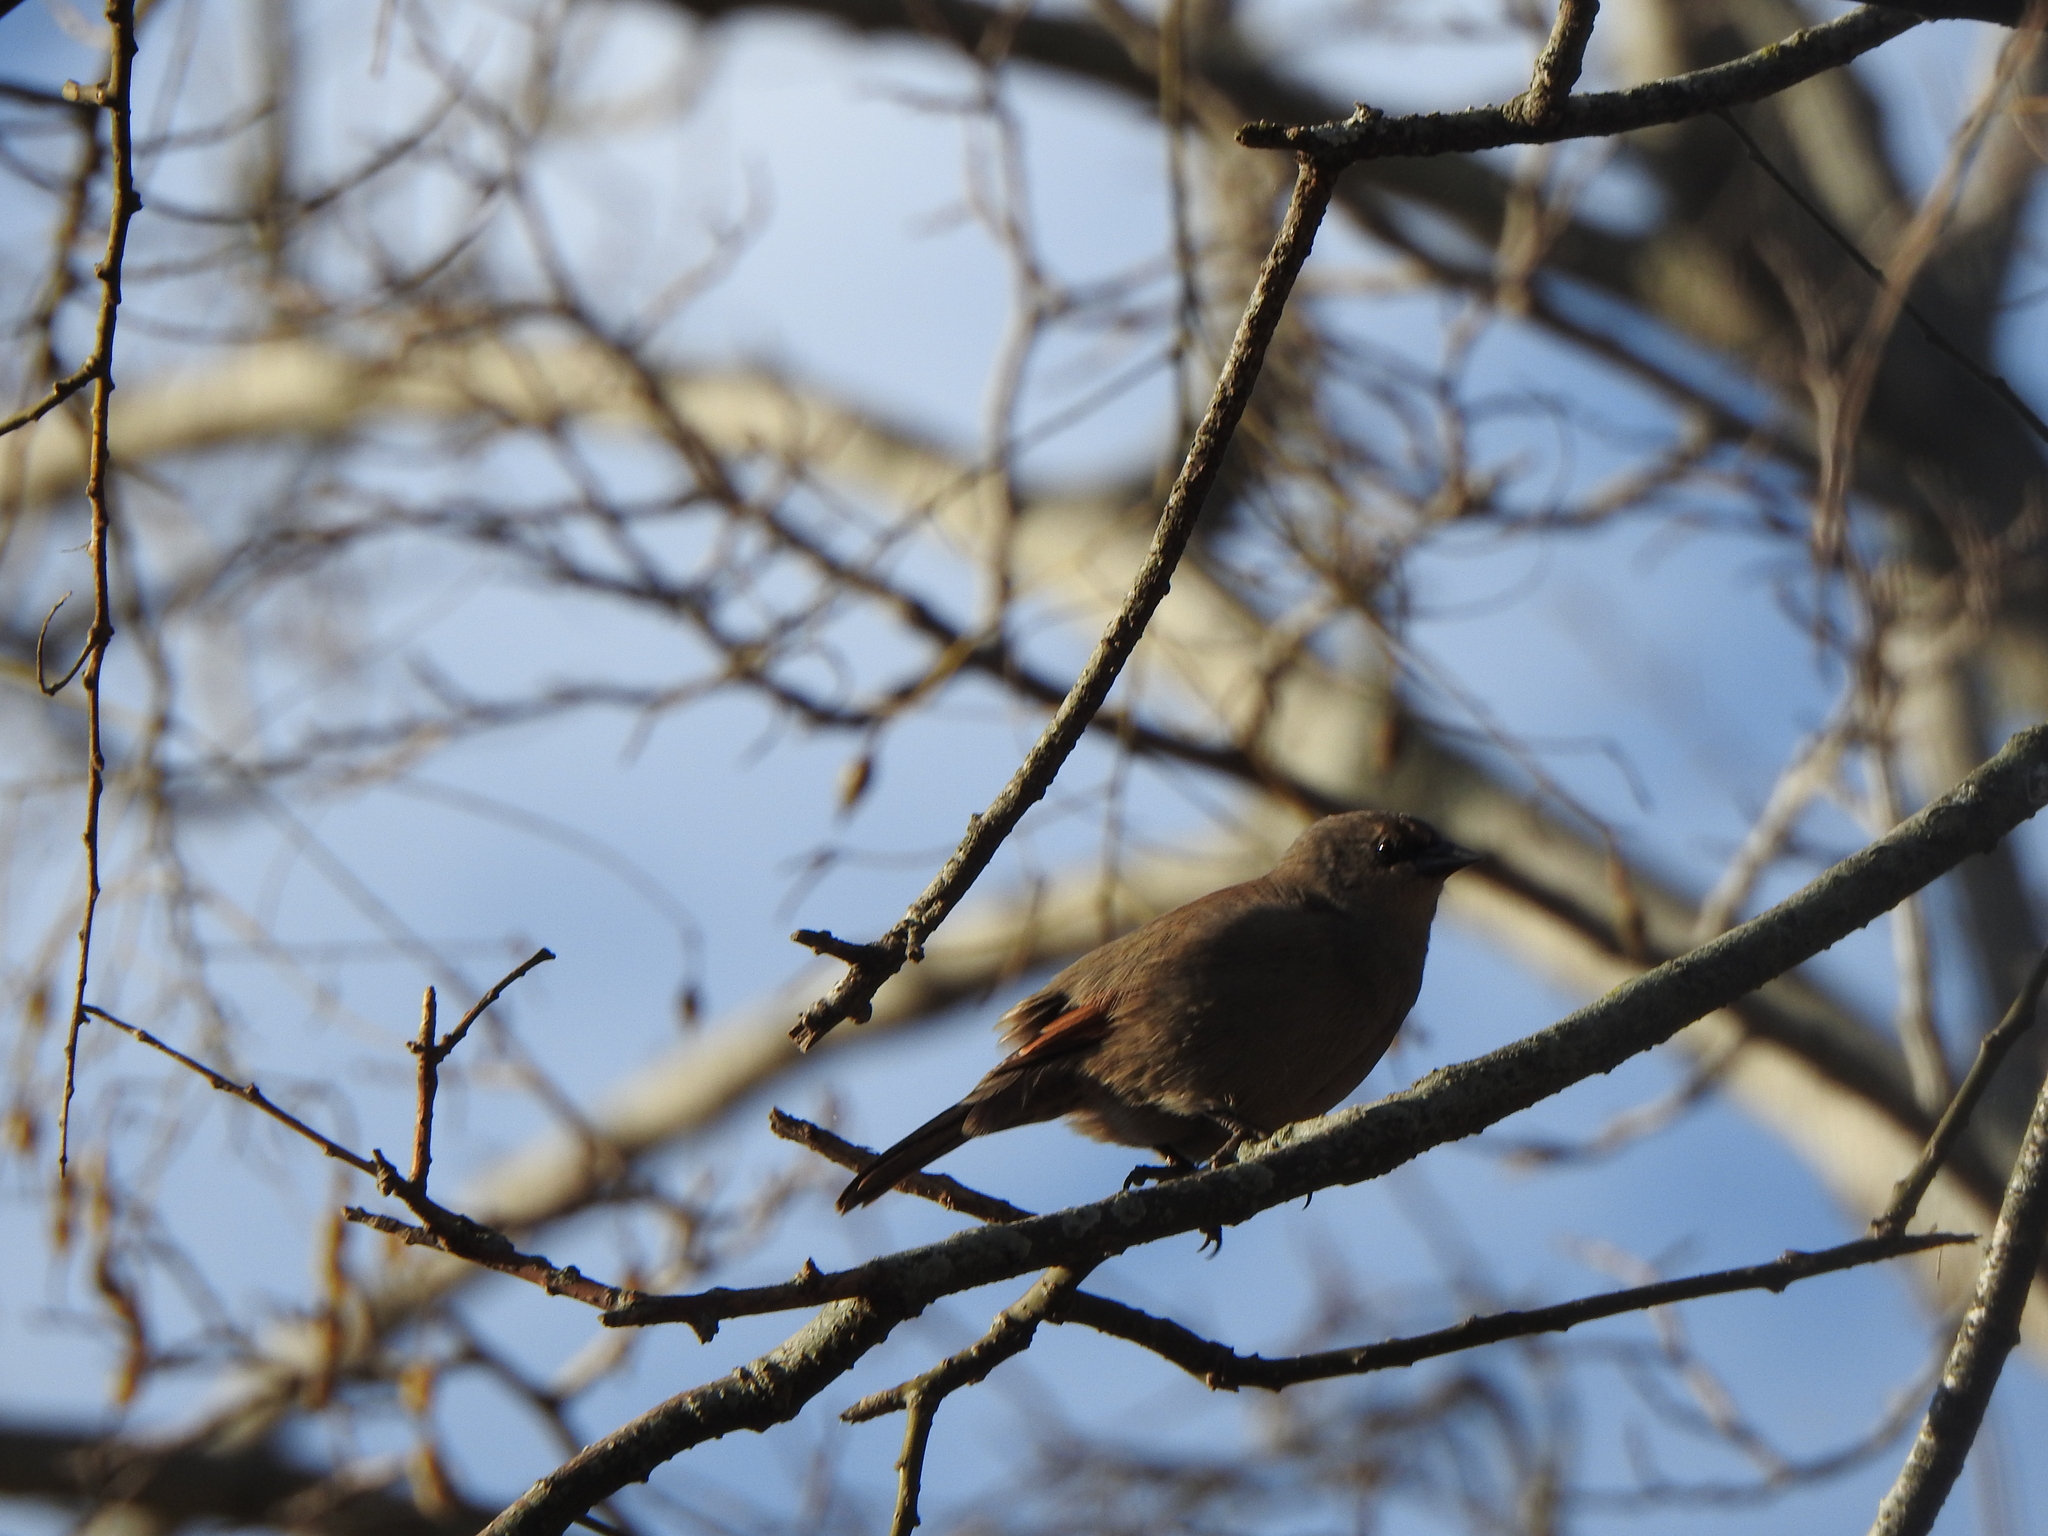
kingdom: Animalia
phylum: Chordata
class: Aves
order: Passeriformes
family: Icteridae
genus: Agelaioides
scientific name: Agelaioides badius
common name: Baywing
